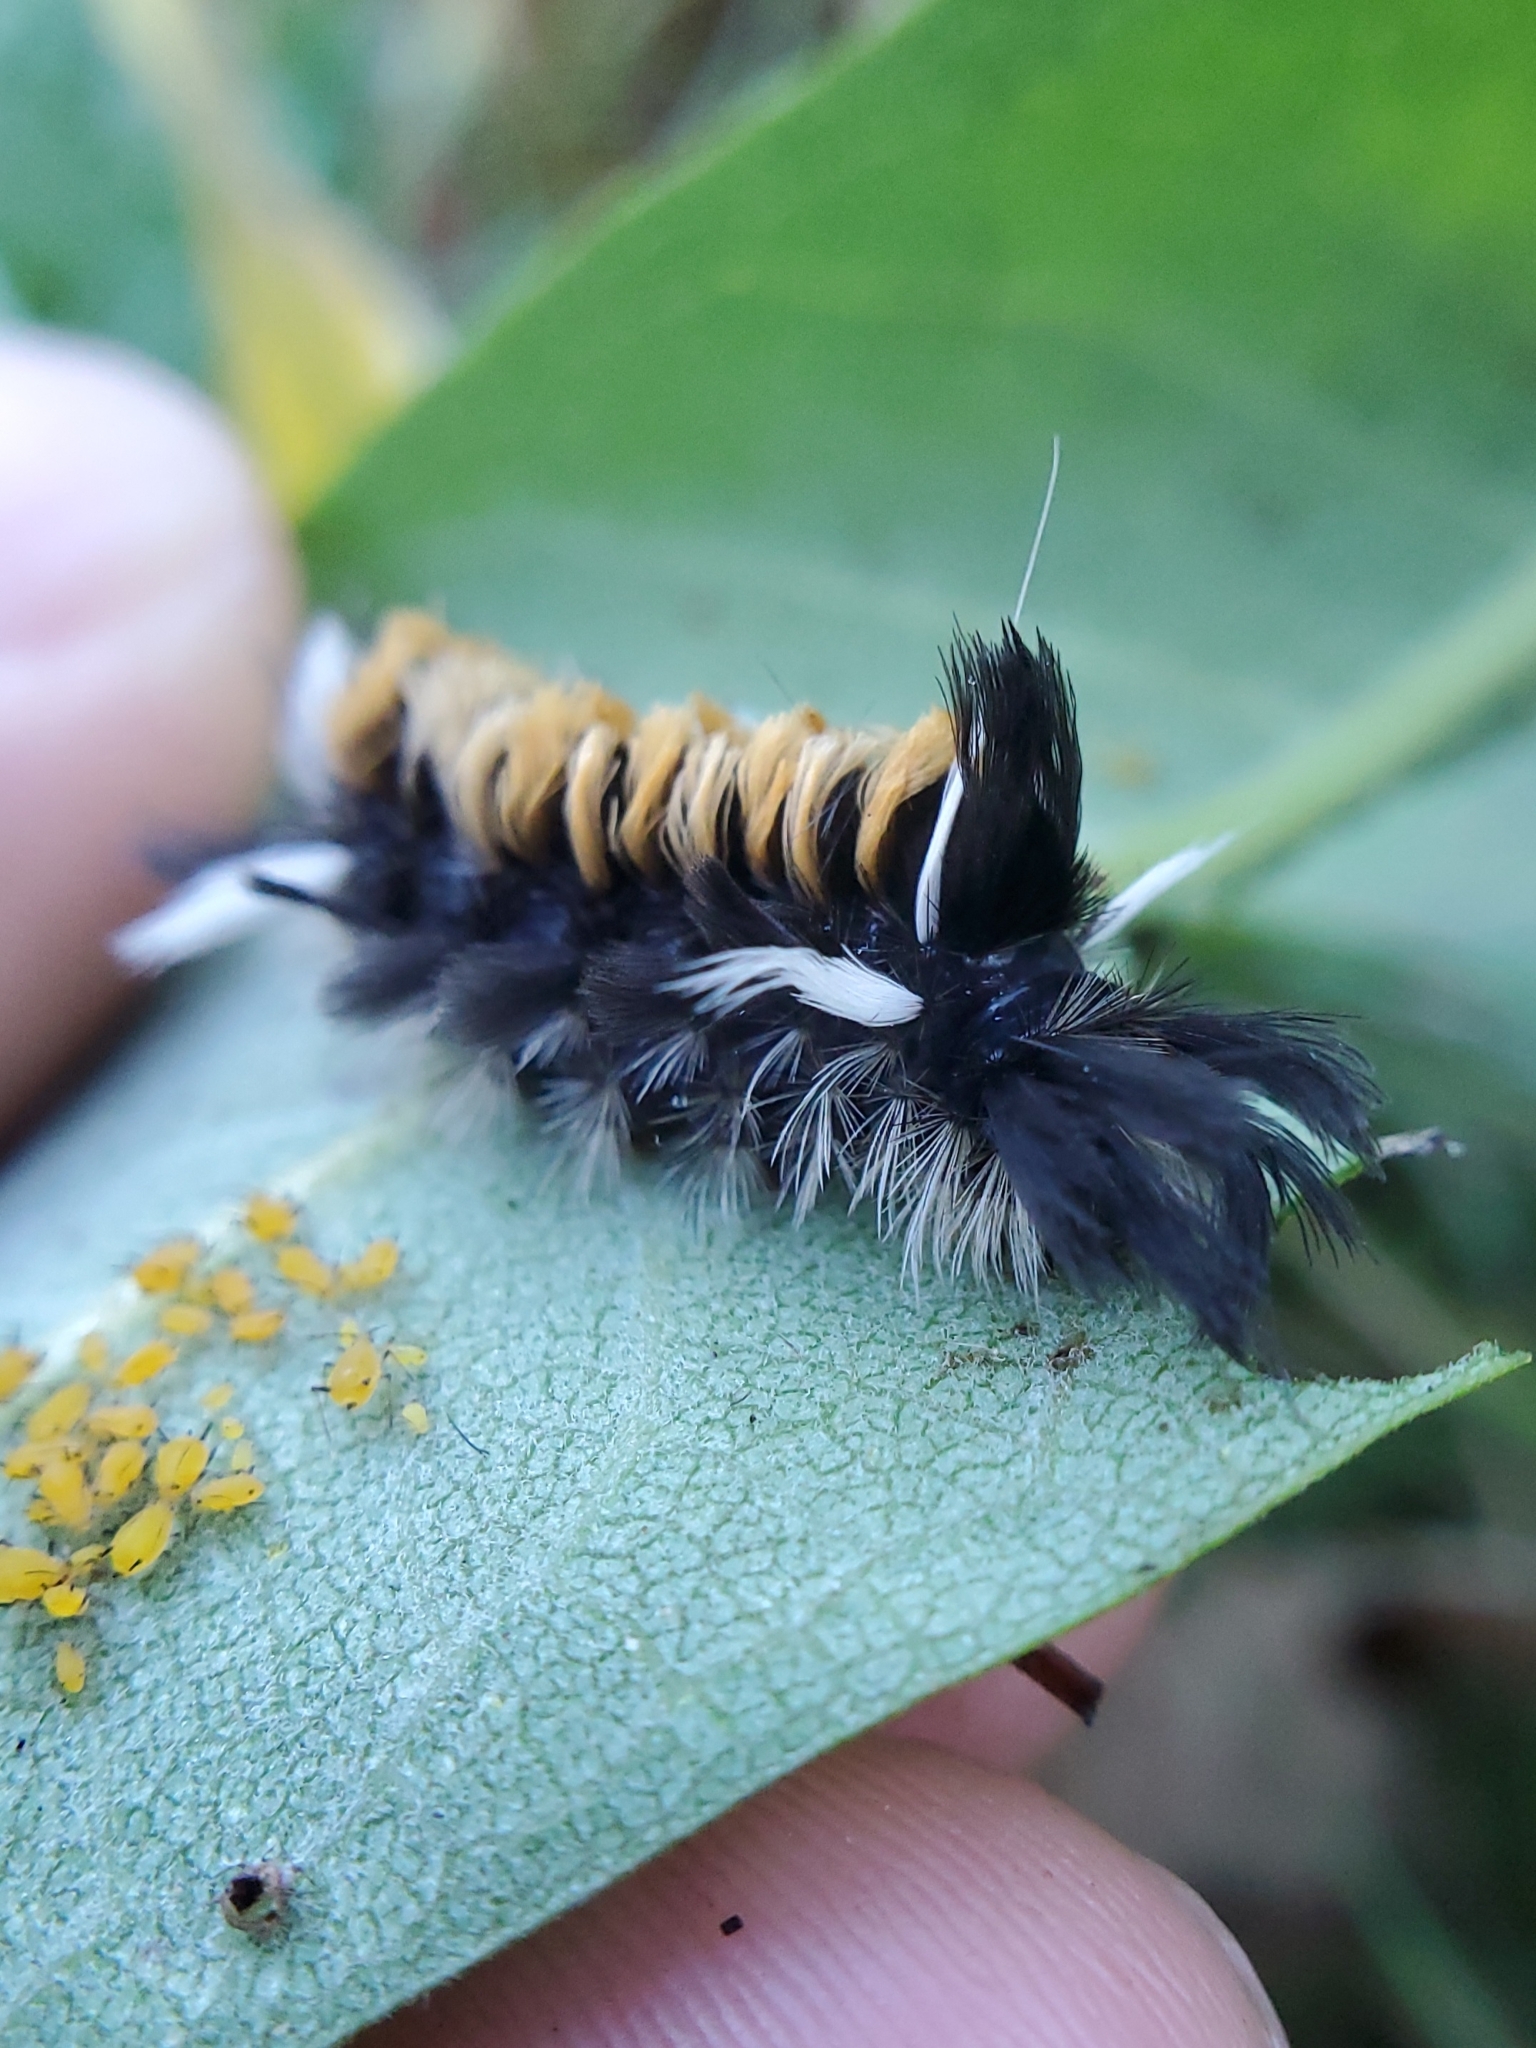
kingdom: Animalia
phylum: Arthropoda
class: Insecta
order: Lepidoptera
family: Erebidae
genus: Euchaetes
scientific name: Euchaetes egle
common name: Milkweed tussock moth
